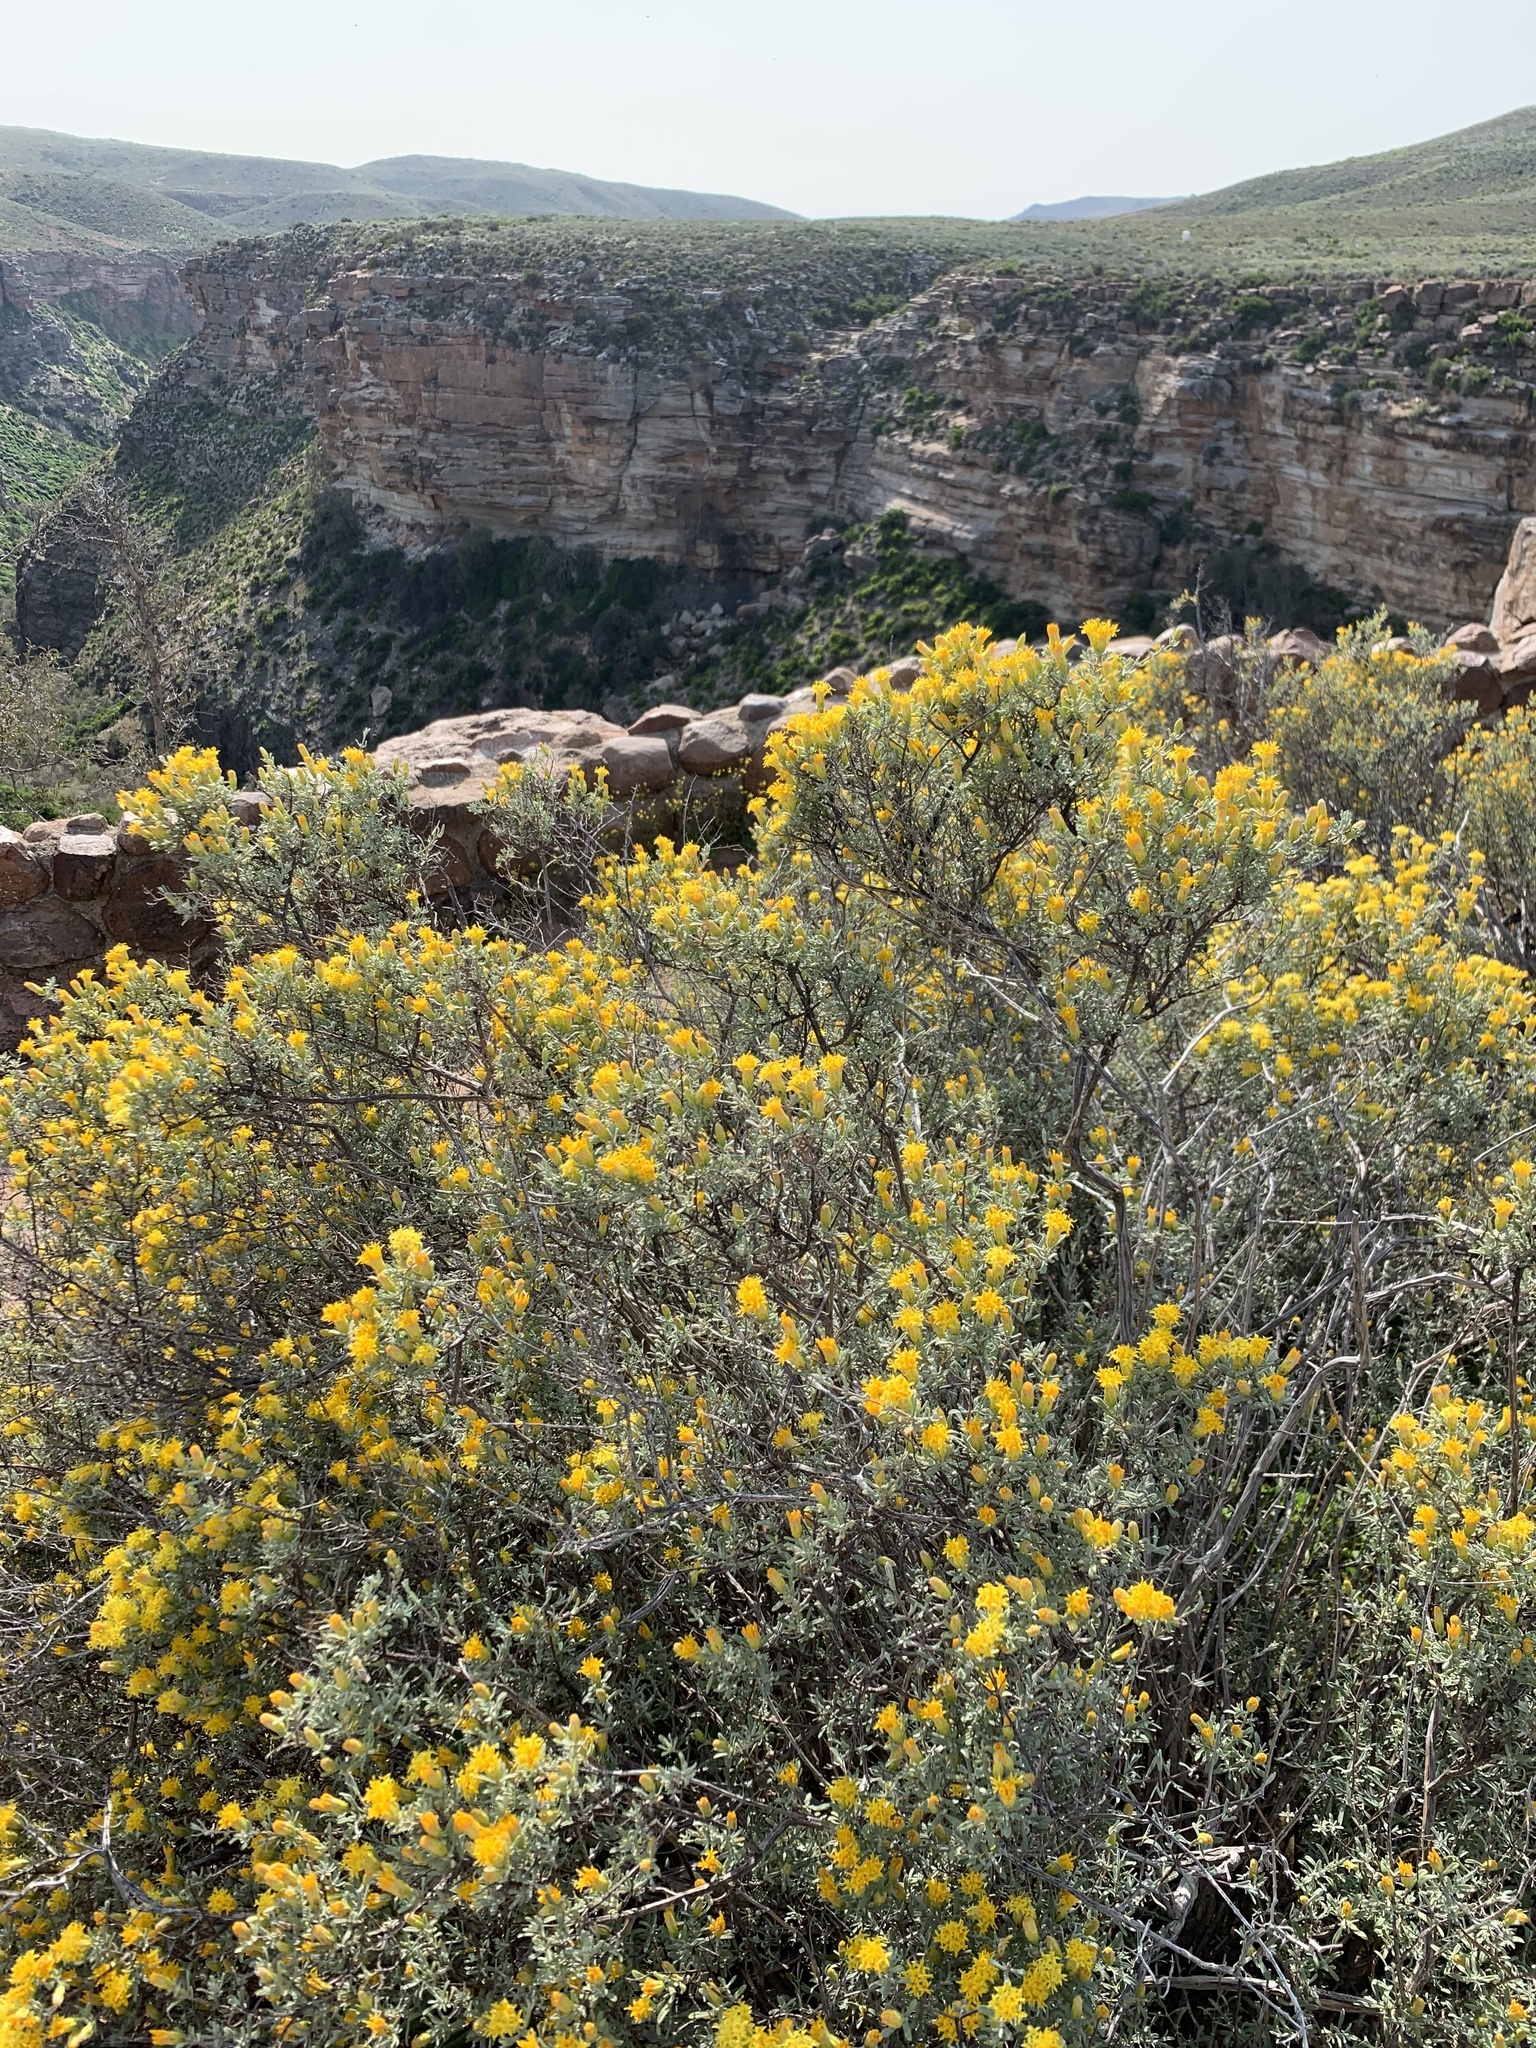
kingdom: Plantae
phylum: Tracheophyta
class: Magnoliopsida
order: Asterales
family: Asteraceae
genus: Pteronia
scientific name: Pteronia incana
